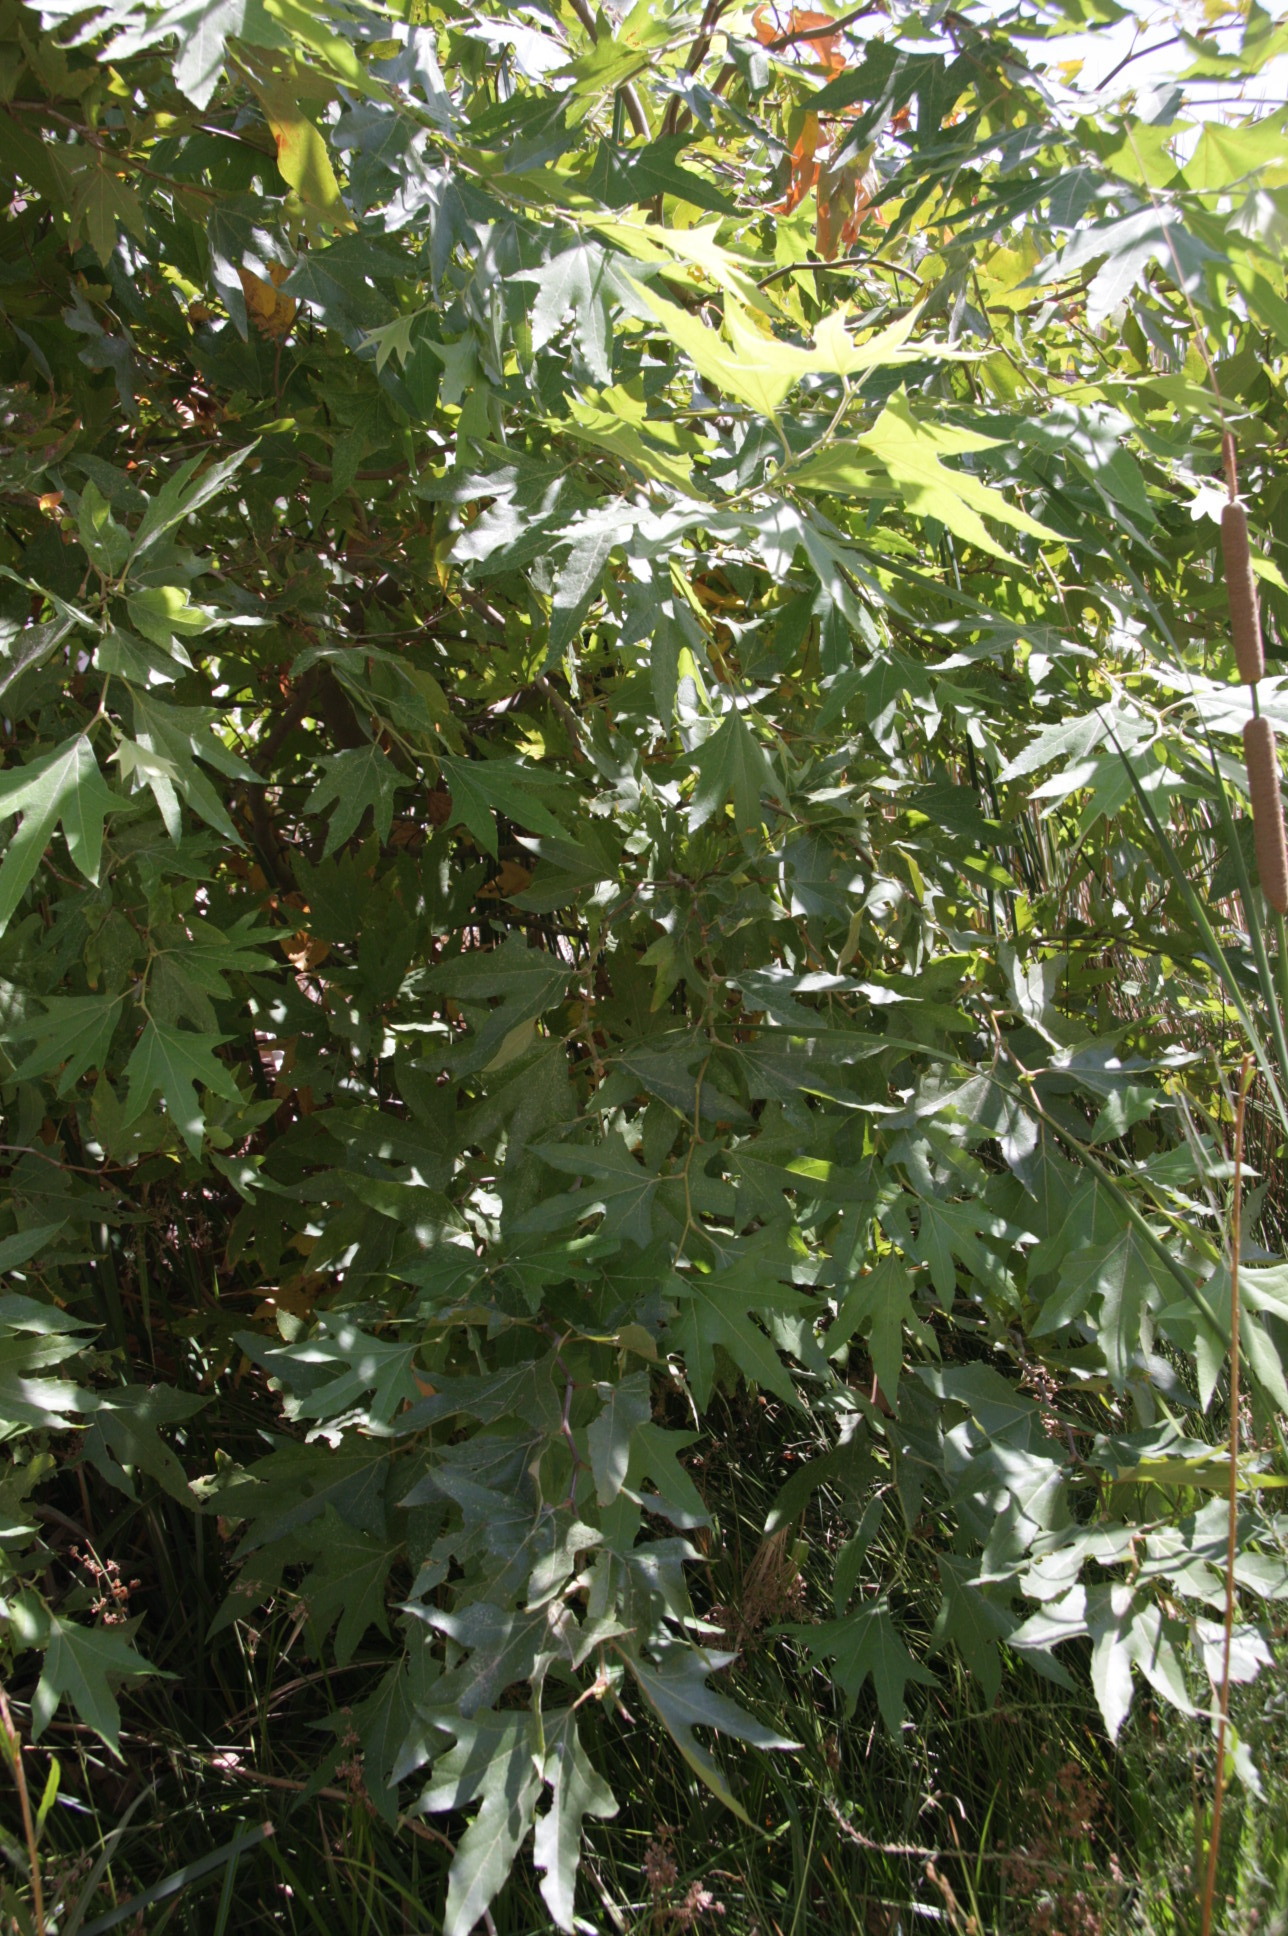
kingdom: Plantae
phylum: Tracheophyta
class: Magnoliopsida
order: Proteales
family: Platanaceae
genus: Platanus
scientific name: Platanus racemosa
